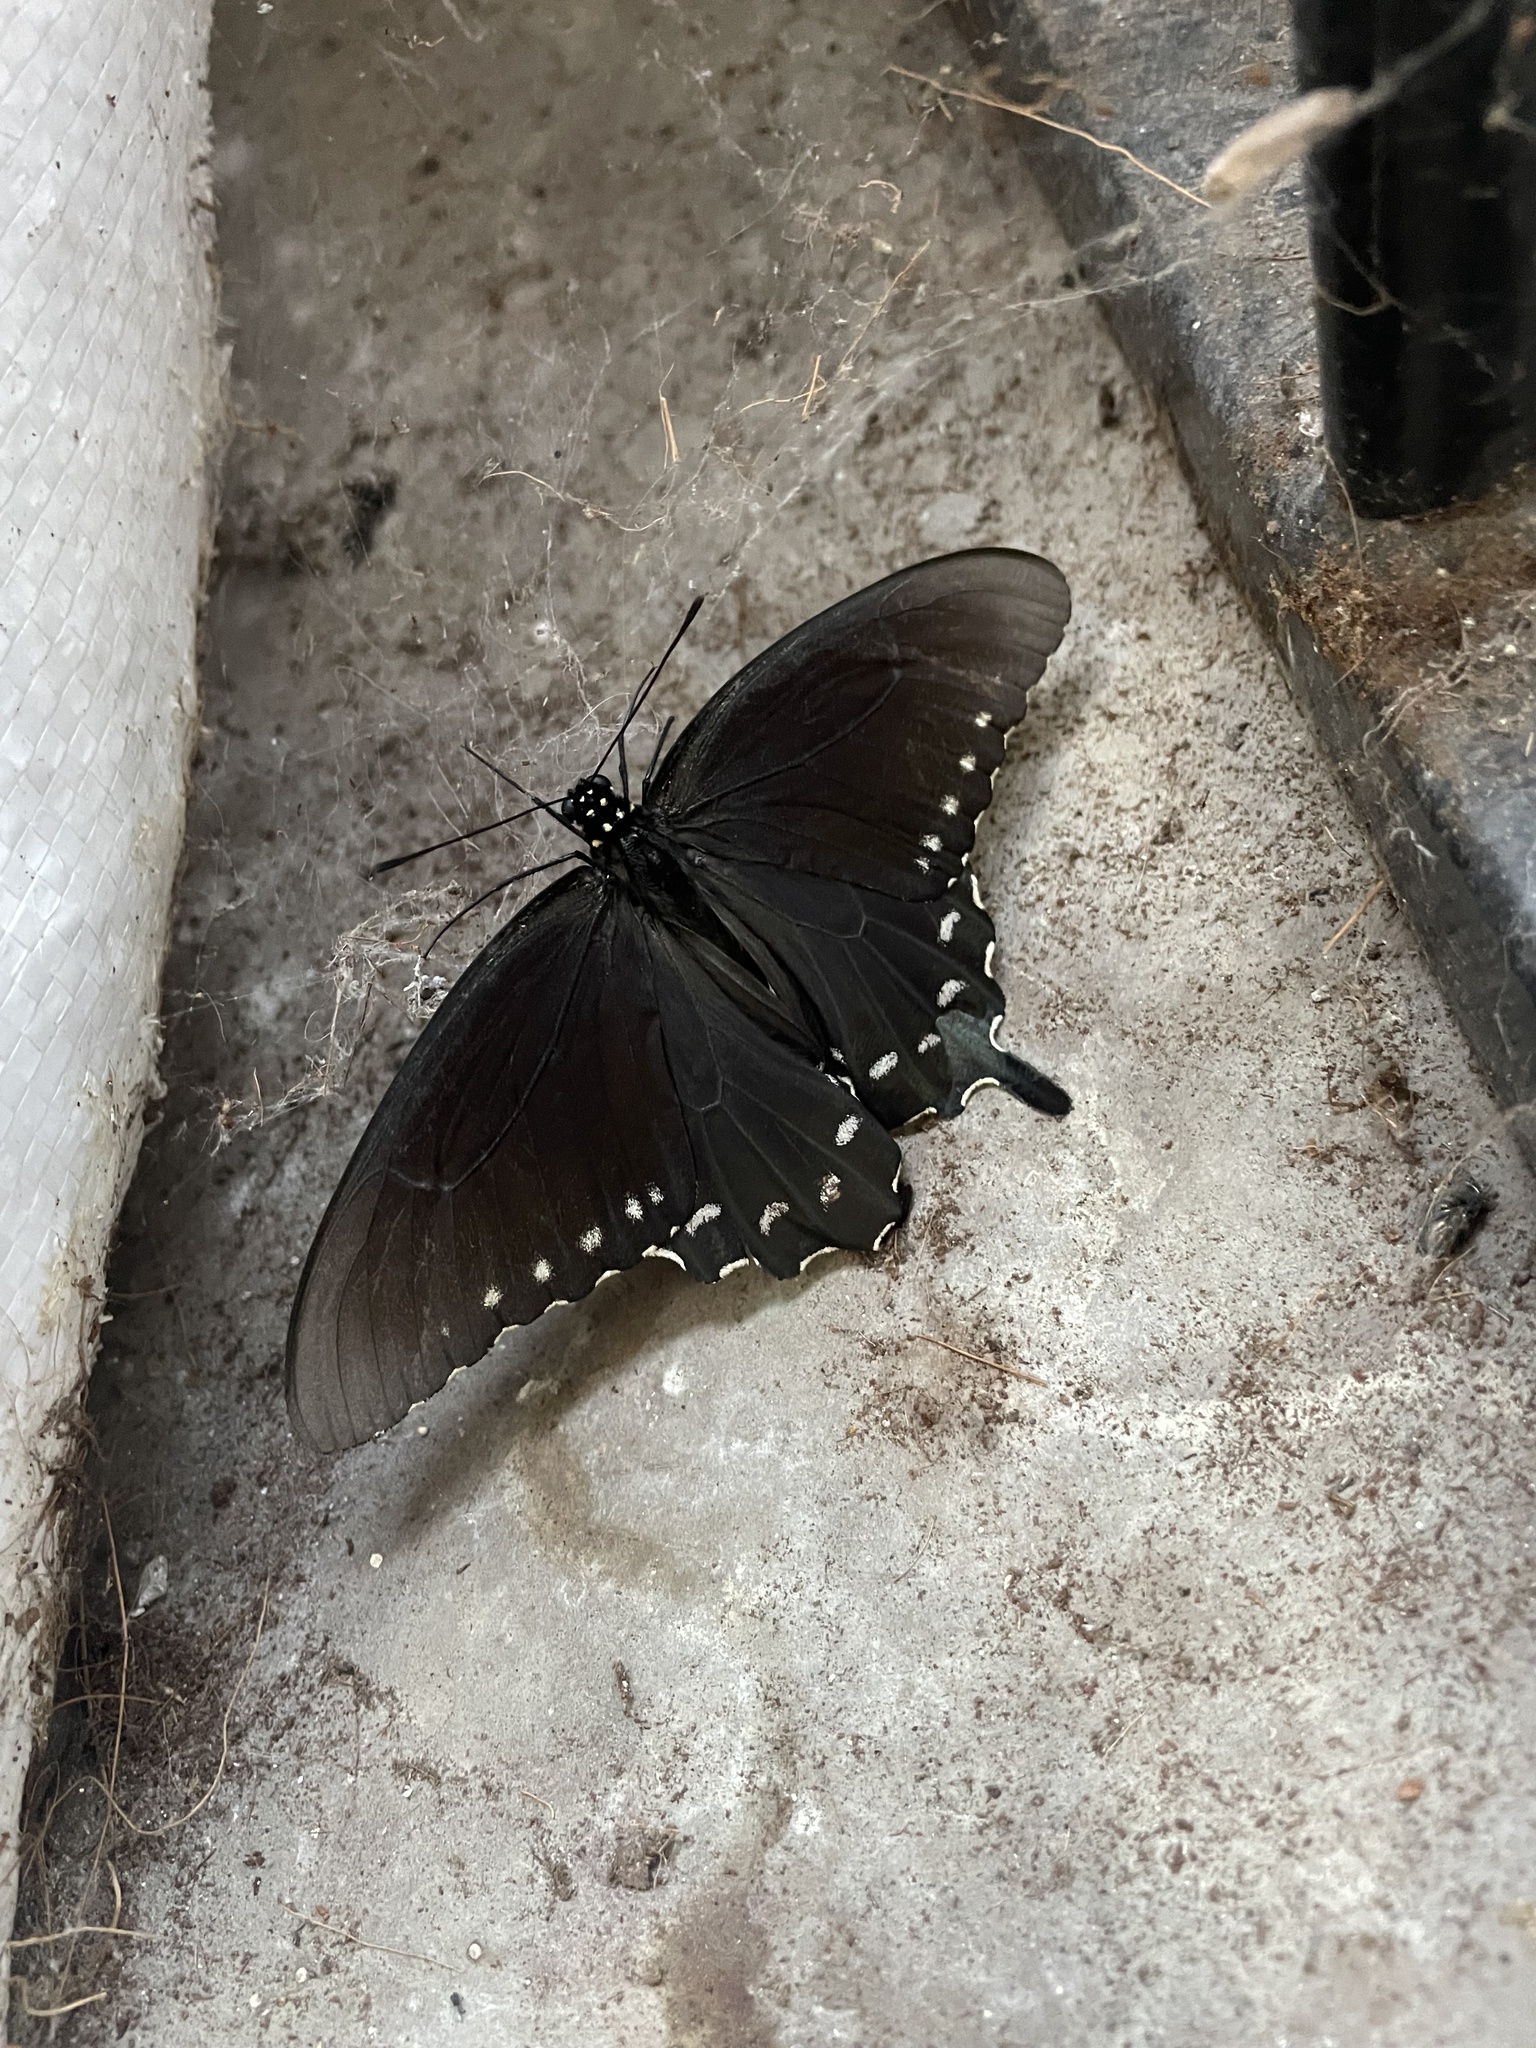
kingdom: Animalia
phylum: Arthropoda
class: Insecta
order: Lepidoptera
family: Papilionidae
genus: Battus
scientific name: Battus philenor
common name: Pipevine swallowtail
